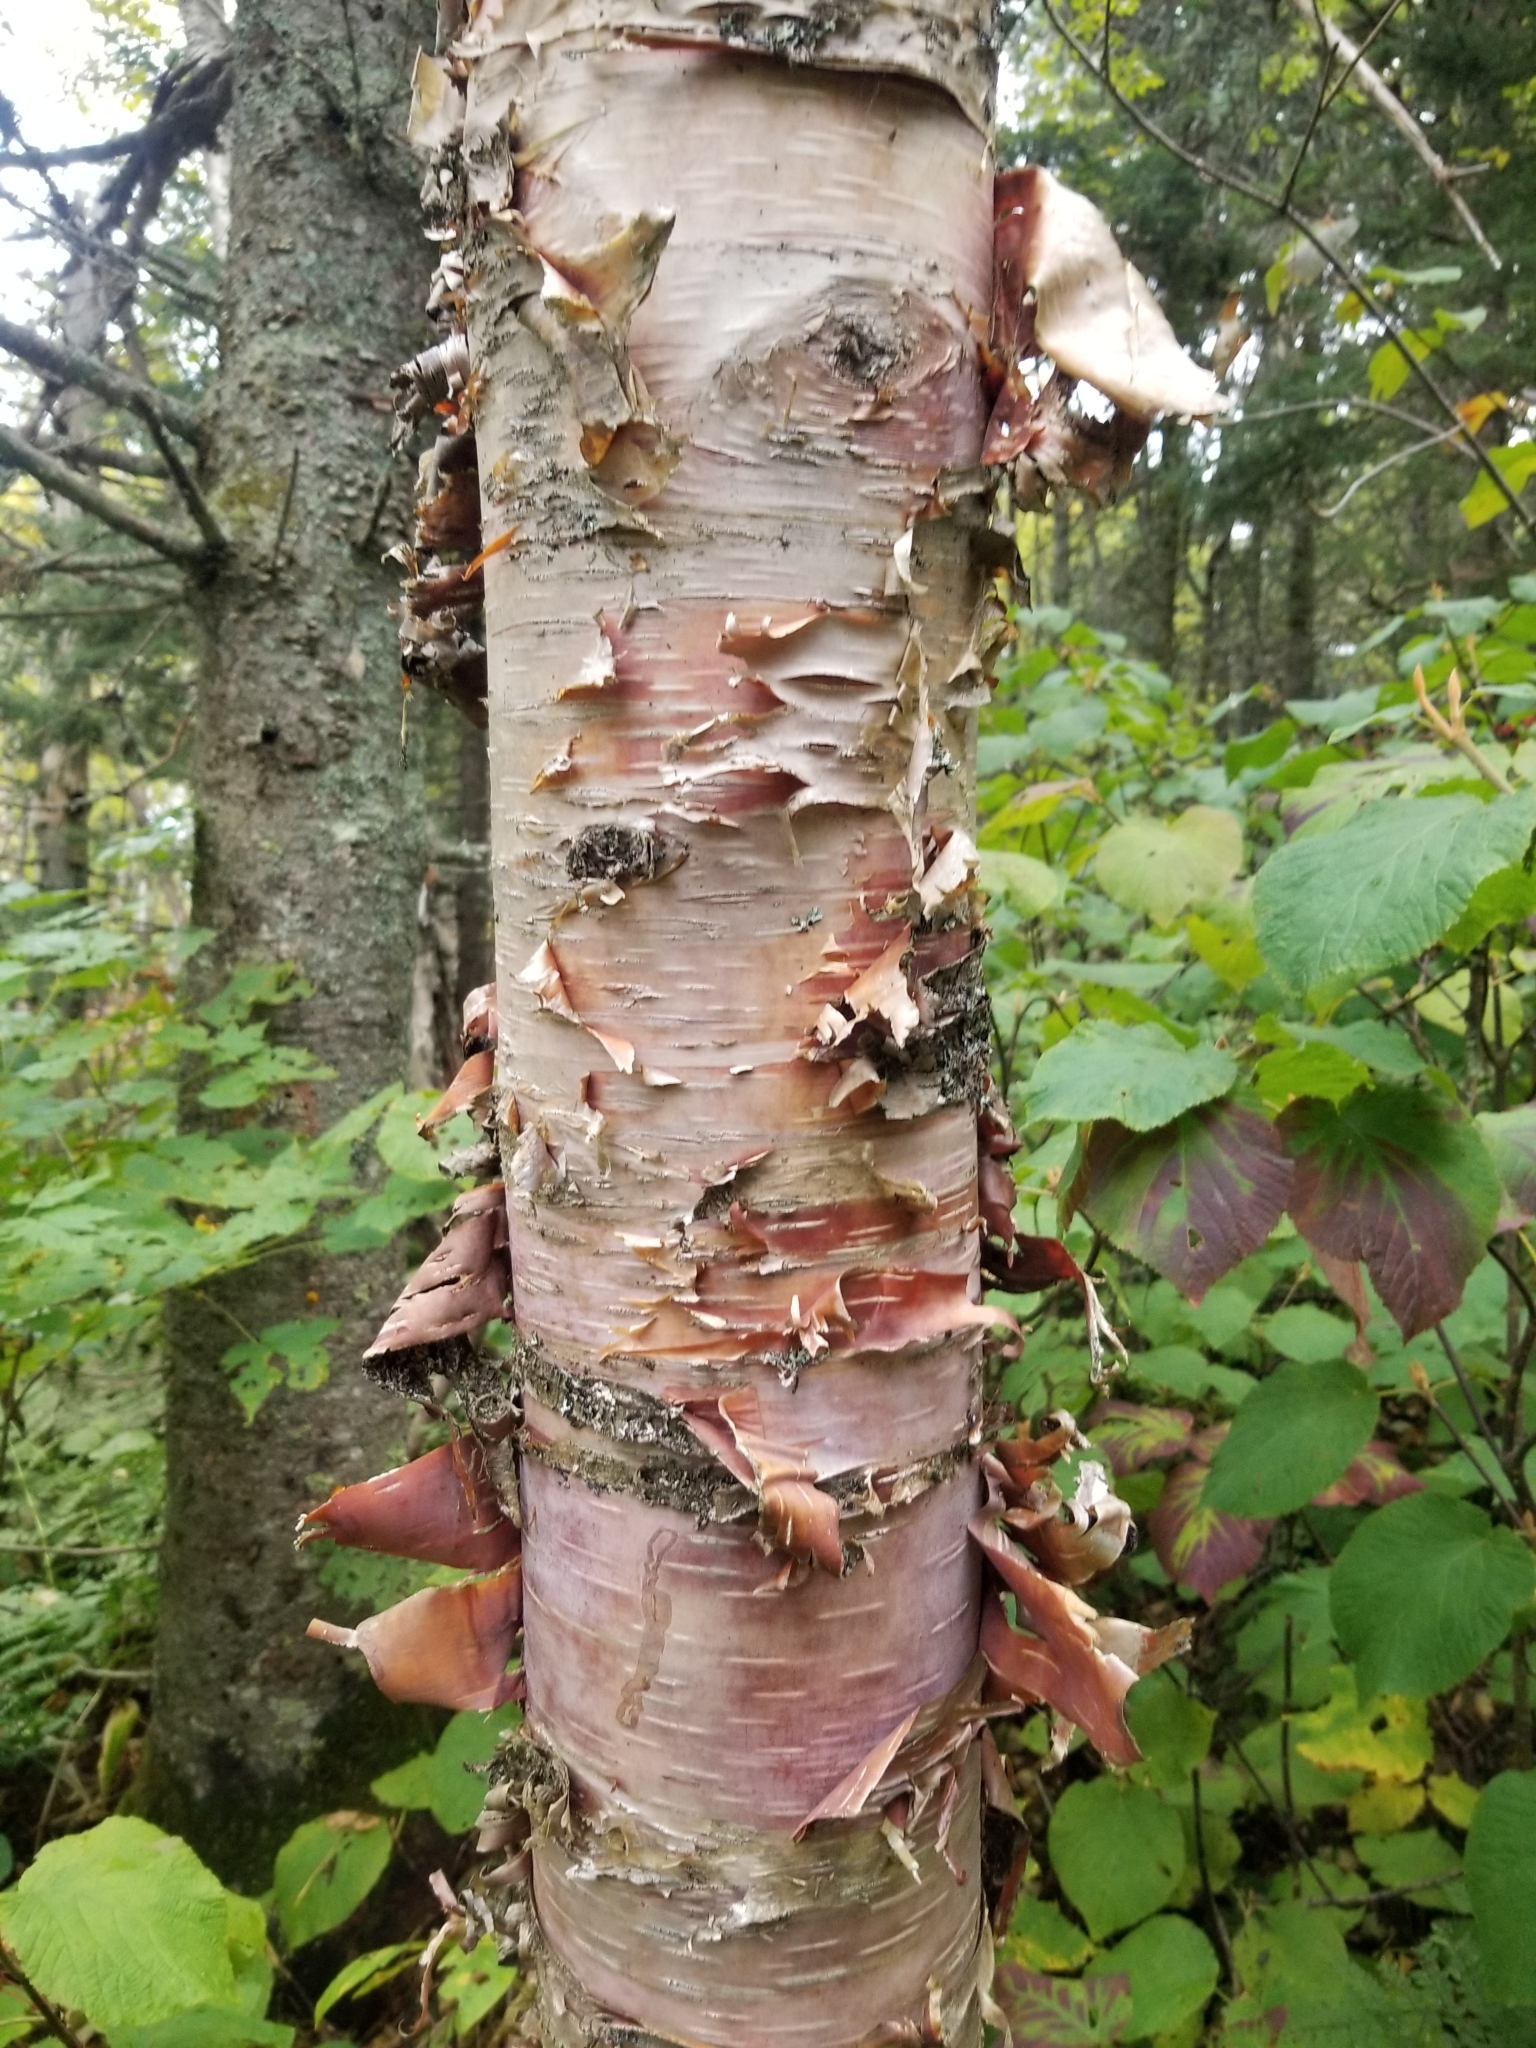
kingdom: Plantae
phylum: Tracheophyta
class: Magnoliopsida
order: Fagales
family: Betulaceae
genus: Betula
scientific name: Betula nigra
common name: Black birch
